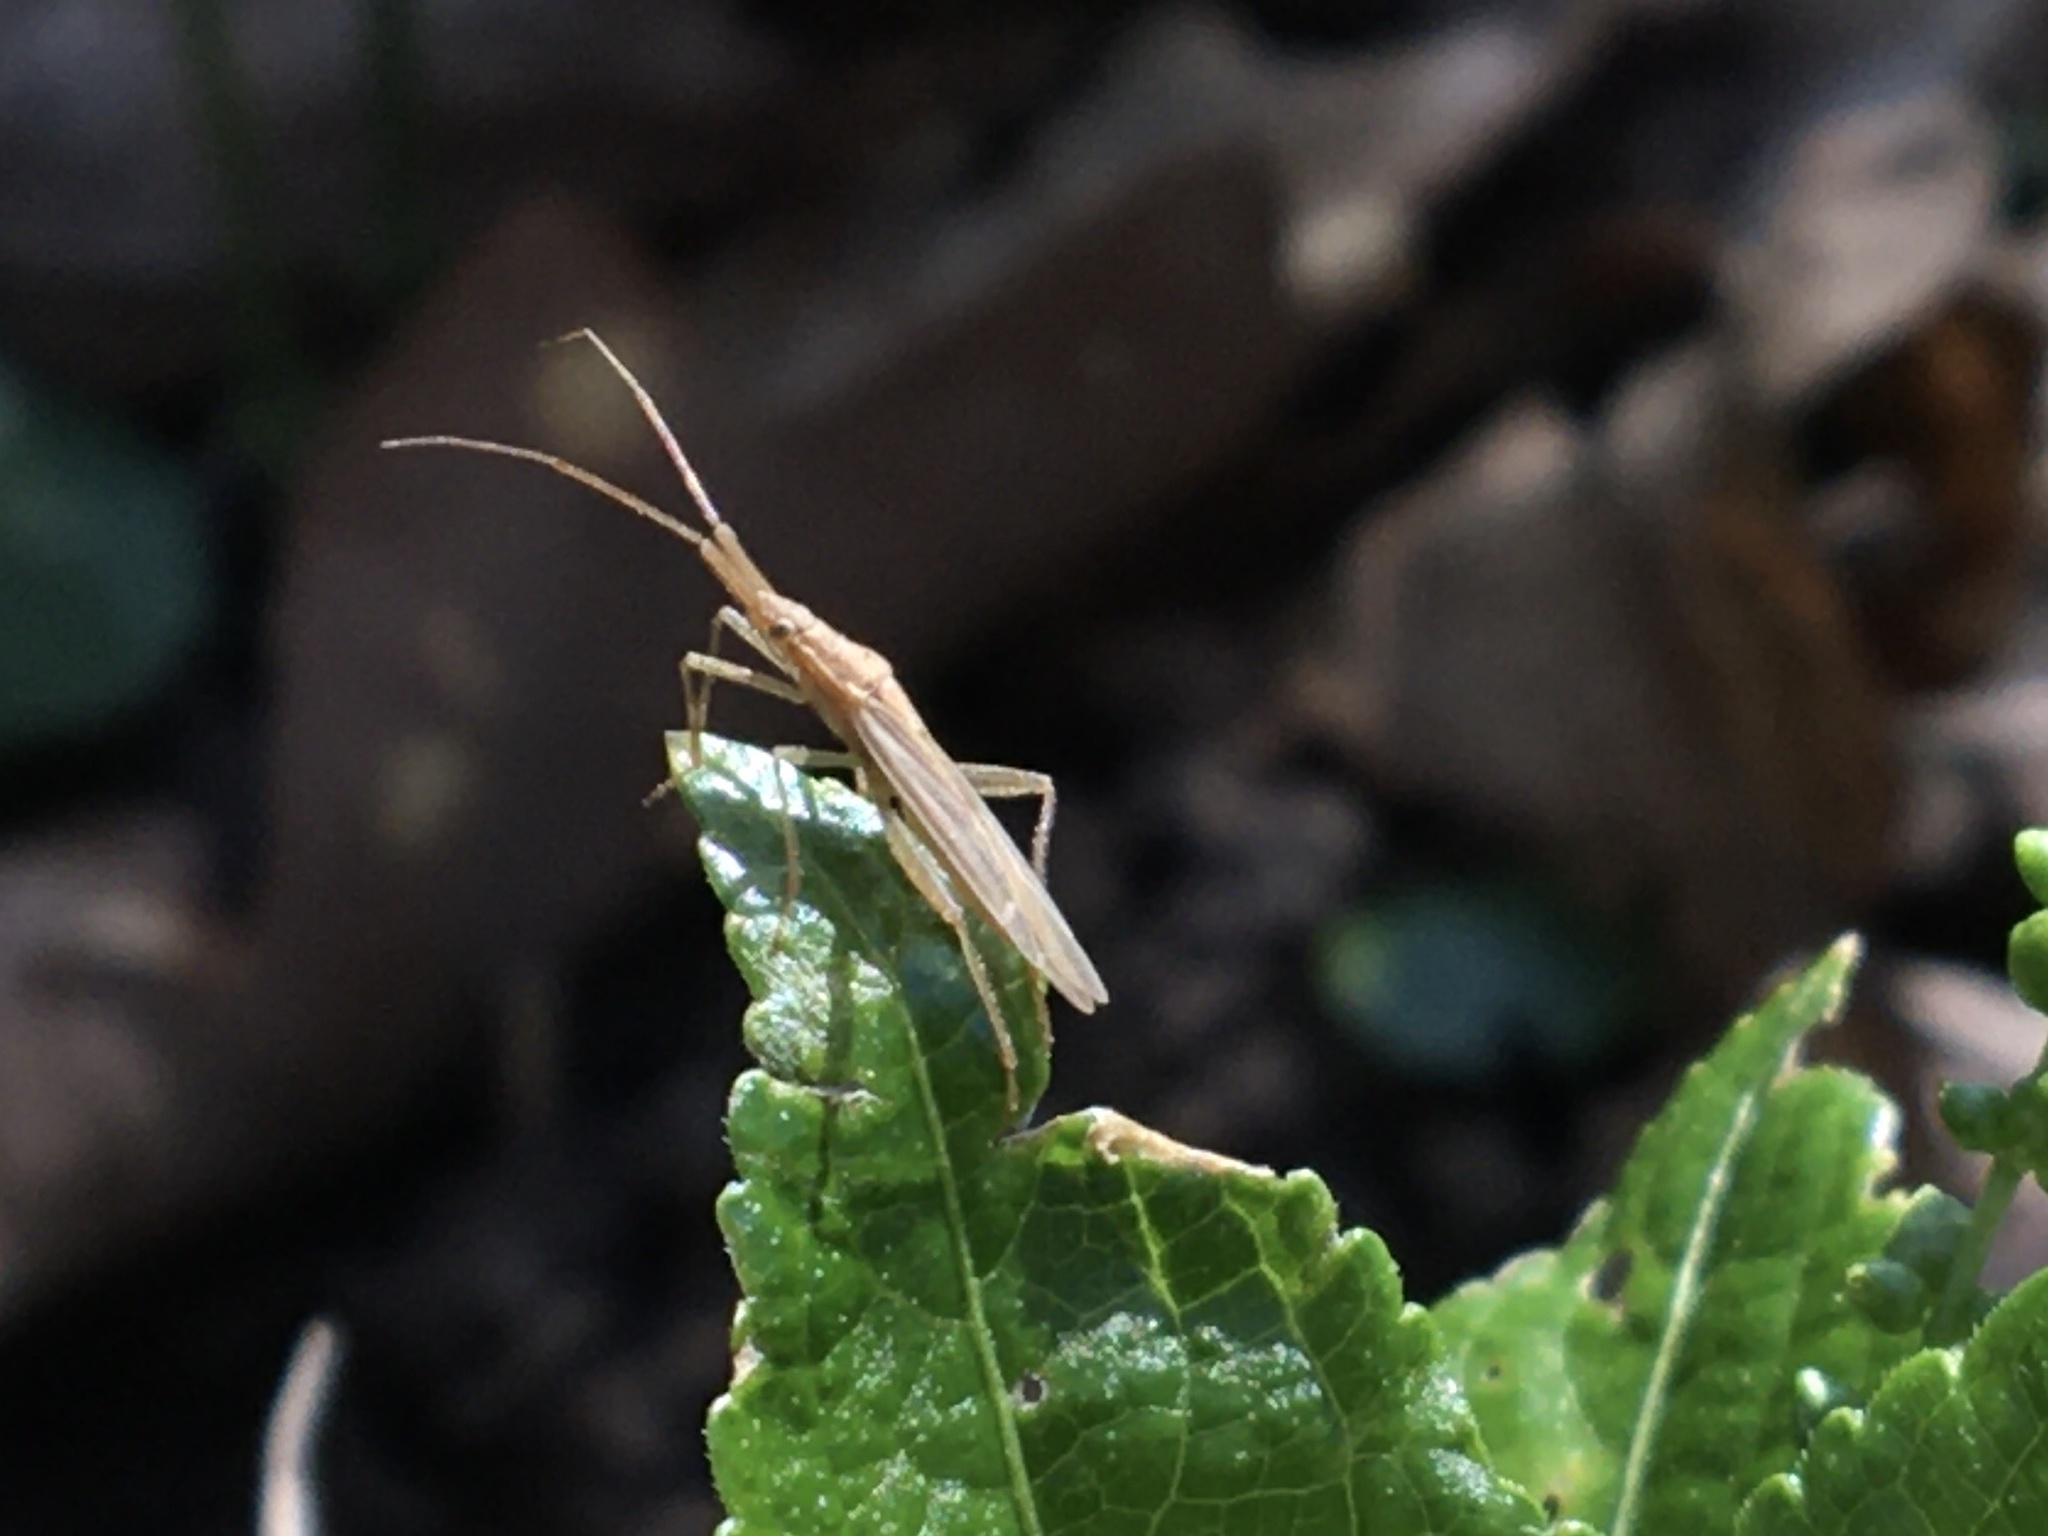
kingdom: Animalia
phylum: Arthropoda
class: Insecta
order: Hemiptera
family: Miridae
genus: Stenodema
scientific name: Stenodema laevigata
